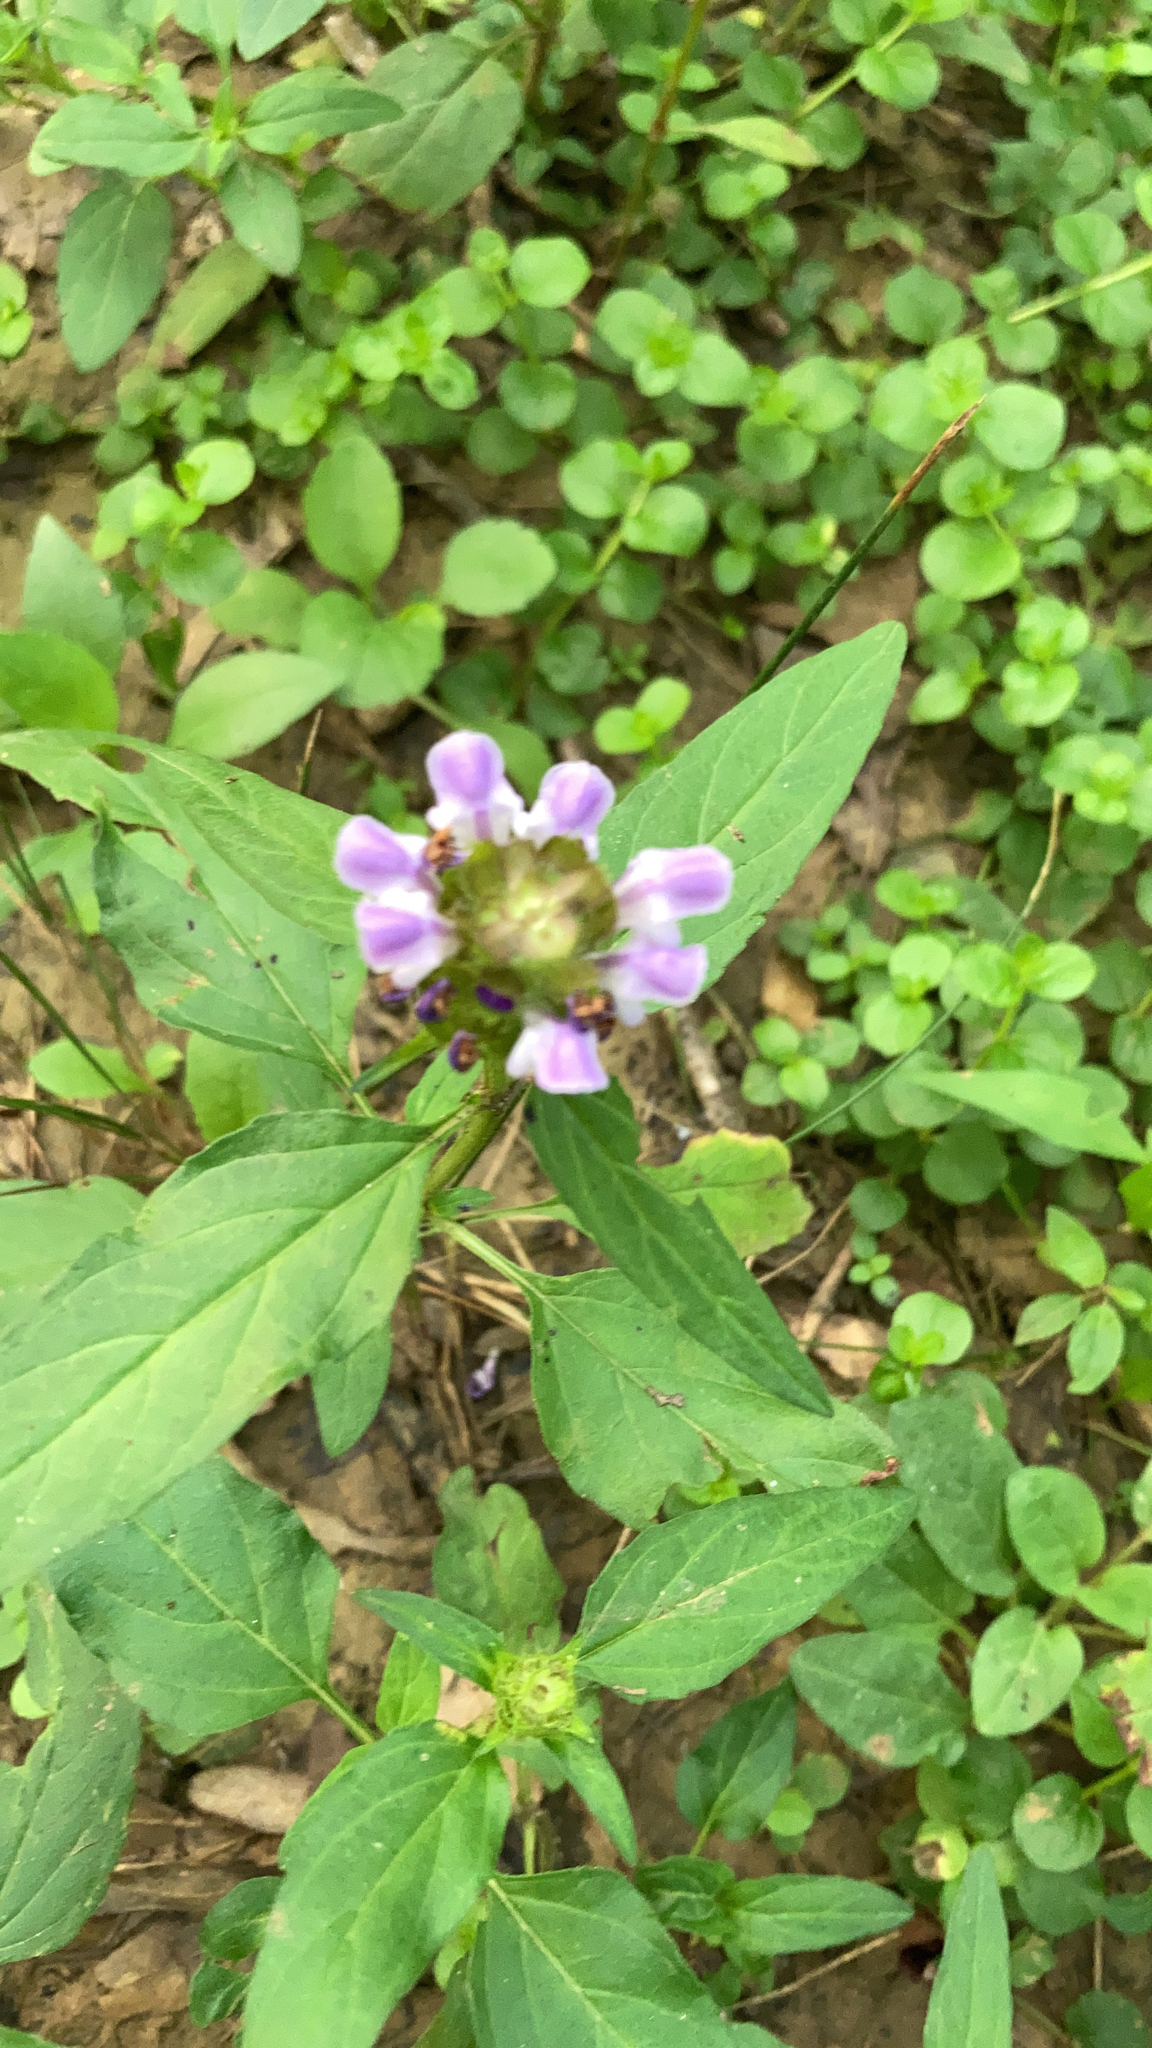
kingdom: Plantae
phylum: Tracheophyta
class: Magnoliopsida
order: Lamiales
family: Lamiaceae
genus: Prunella
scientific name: Prunella vulgaris
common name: Heal-all
